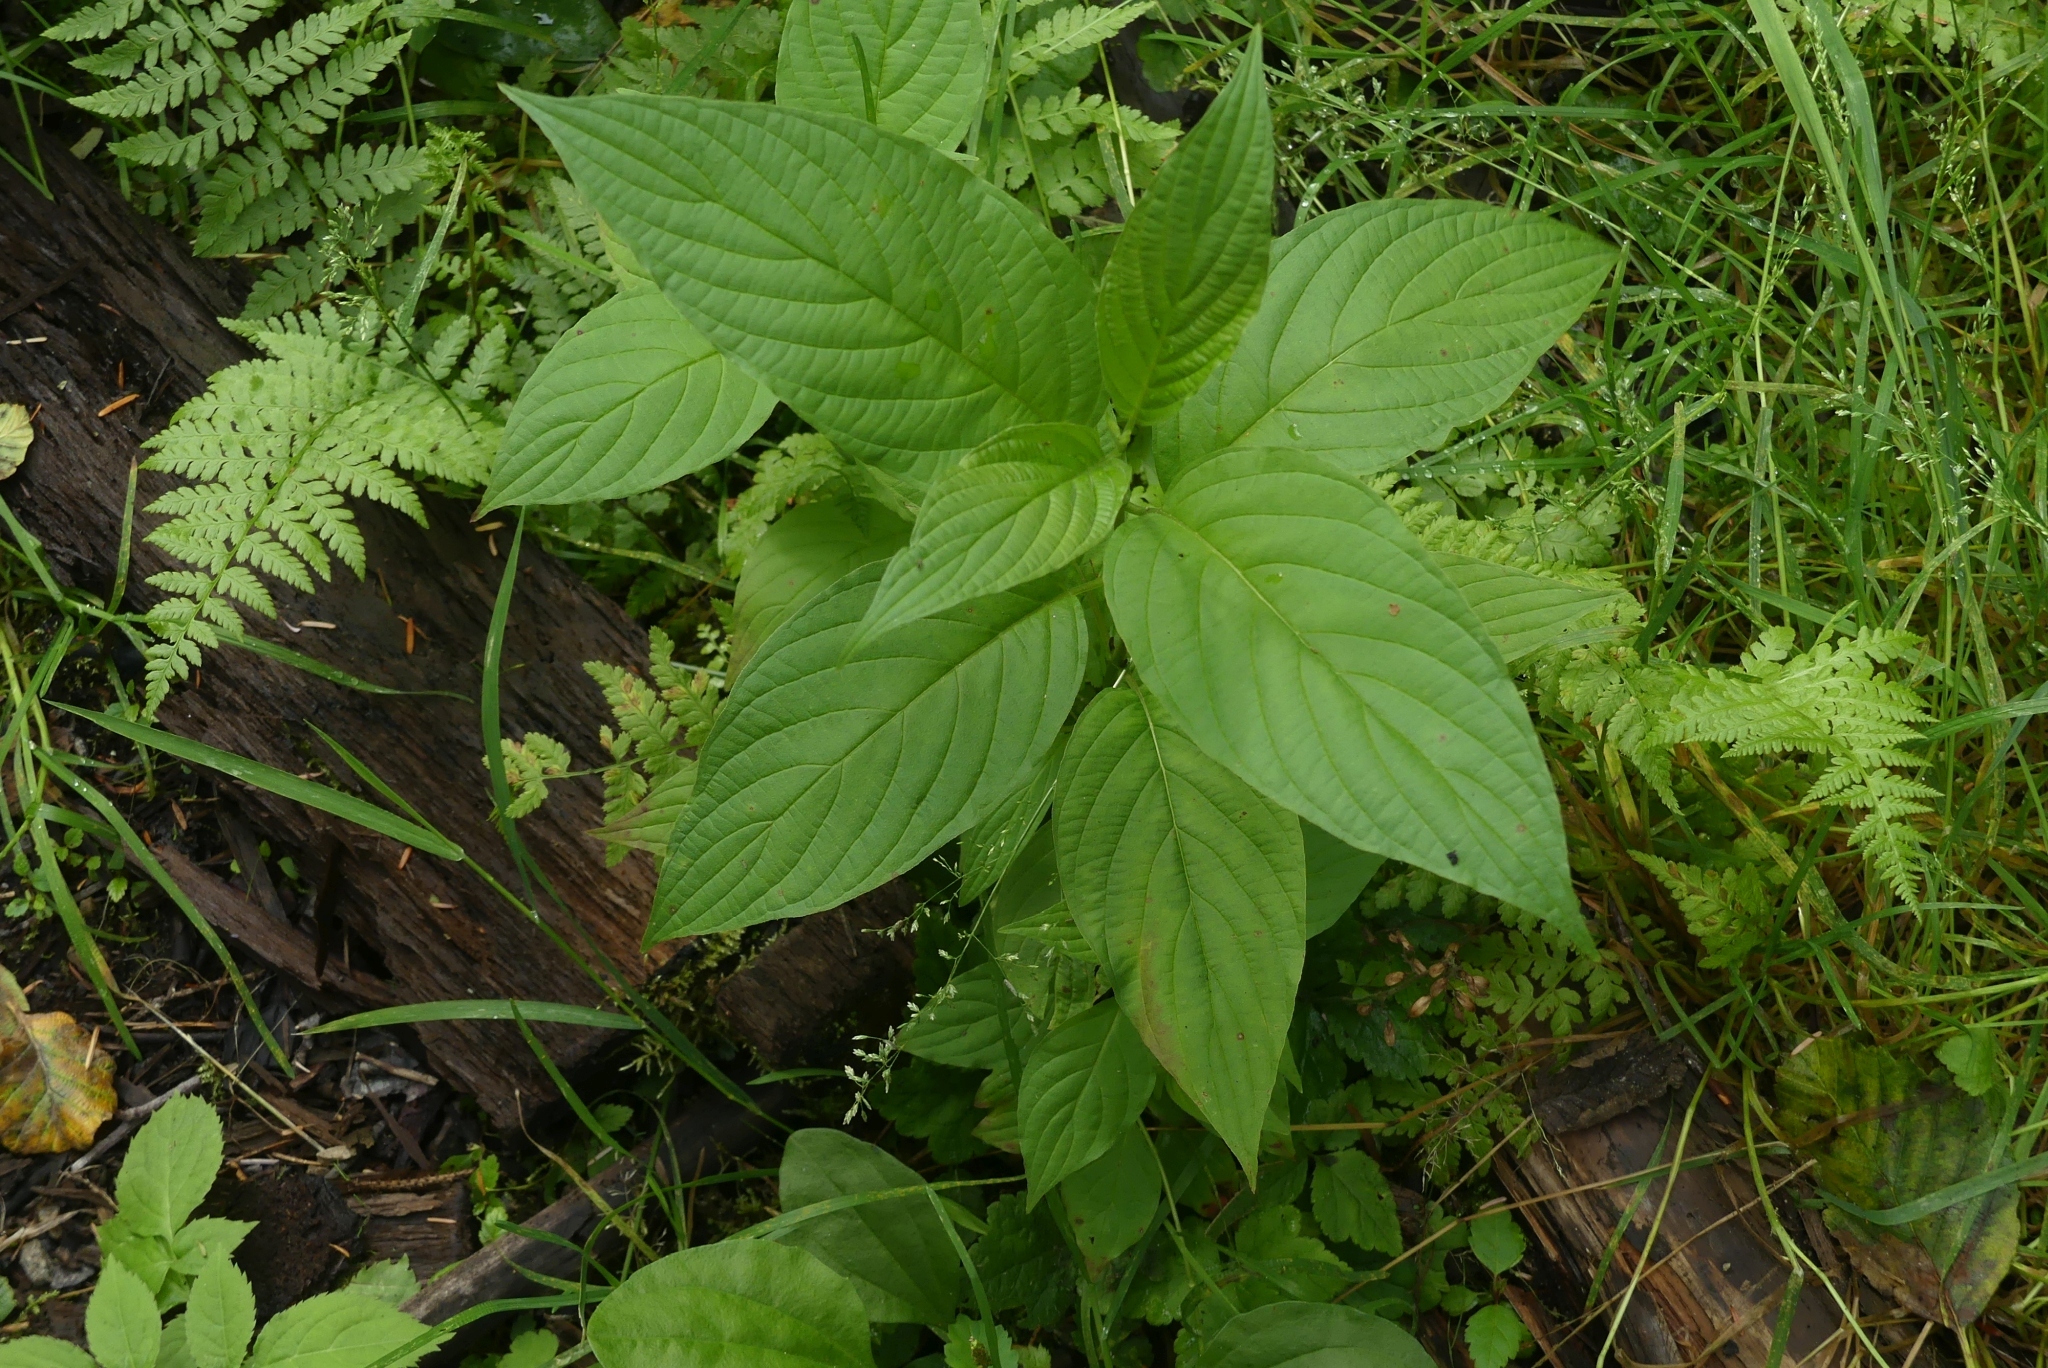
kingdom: Plantae
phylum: Tracheophyta
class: Magnoliopsida
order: Cornales
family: Cornaceae
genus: Cornus
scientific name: Cornus sericea
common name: Red-osier dogwood
